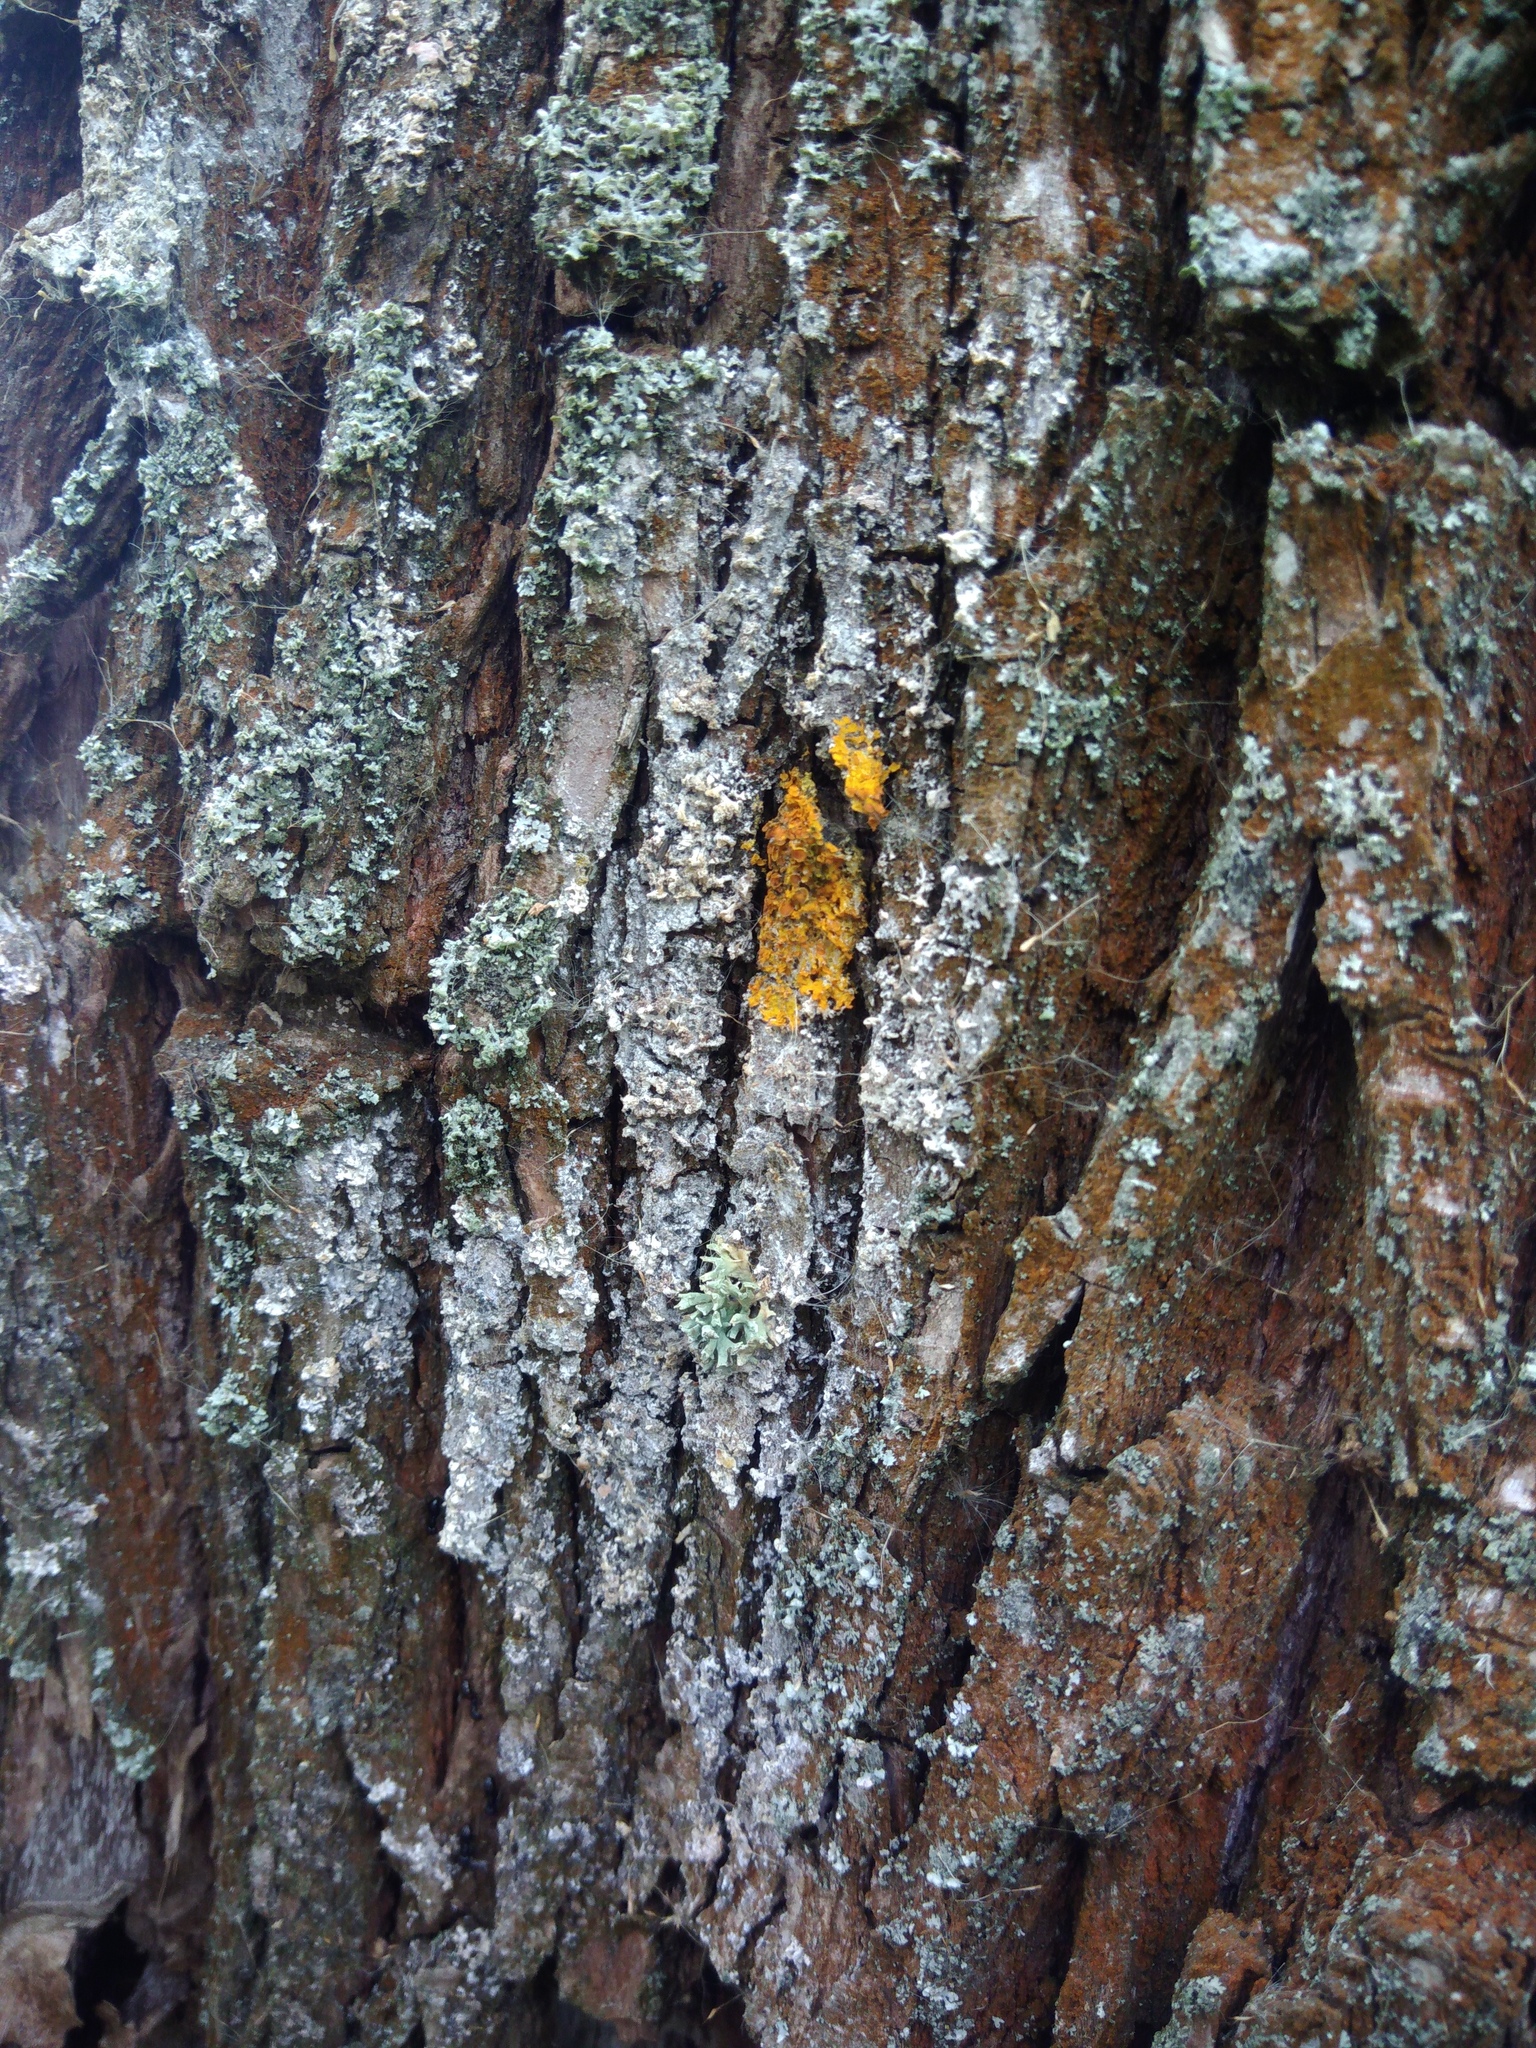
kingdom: Fungi
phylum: Basidiomycota
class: Agaricomycetes
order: Atheliales
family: Atheliaceae
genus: Athelia
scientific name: Athelia arachnoidea
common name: Candelabra duster
